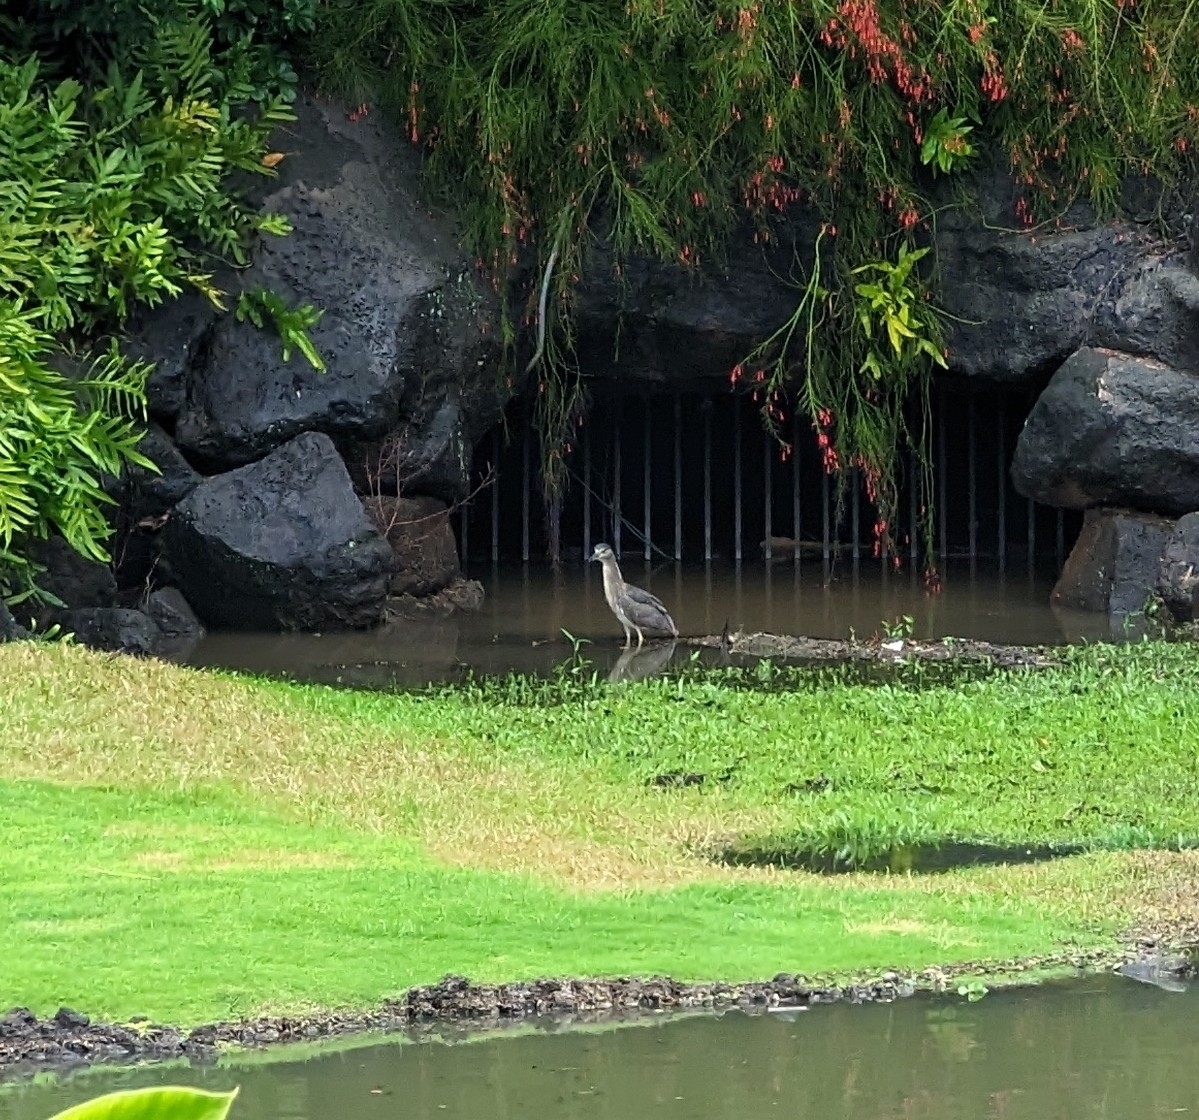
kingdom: Animalia
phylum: Chordata
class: Aves
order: Pelecaniformes
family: Ardeidae
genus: Nycticorax
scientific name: Nycticorax nycticorax
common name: Black-crowned night heron
